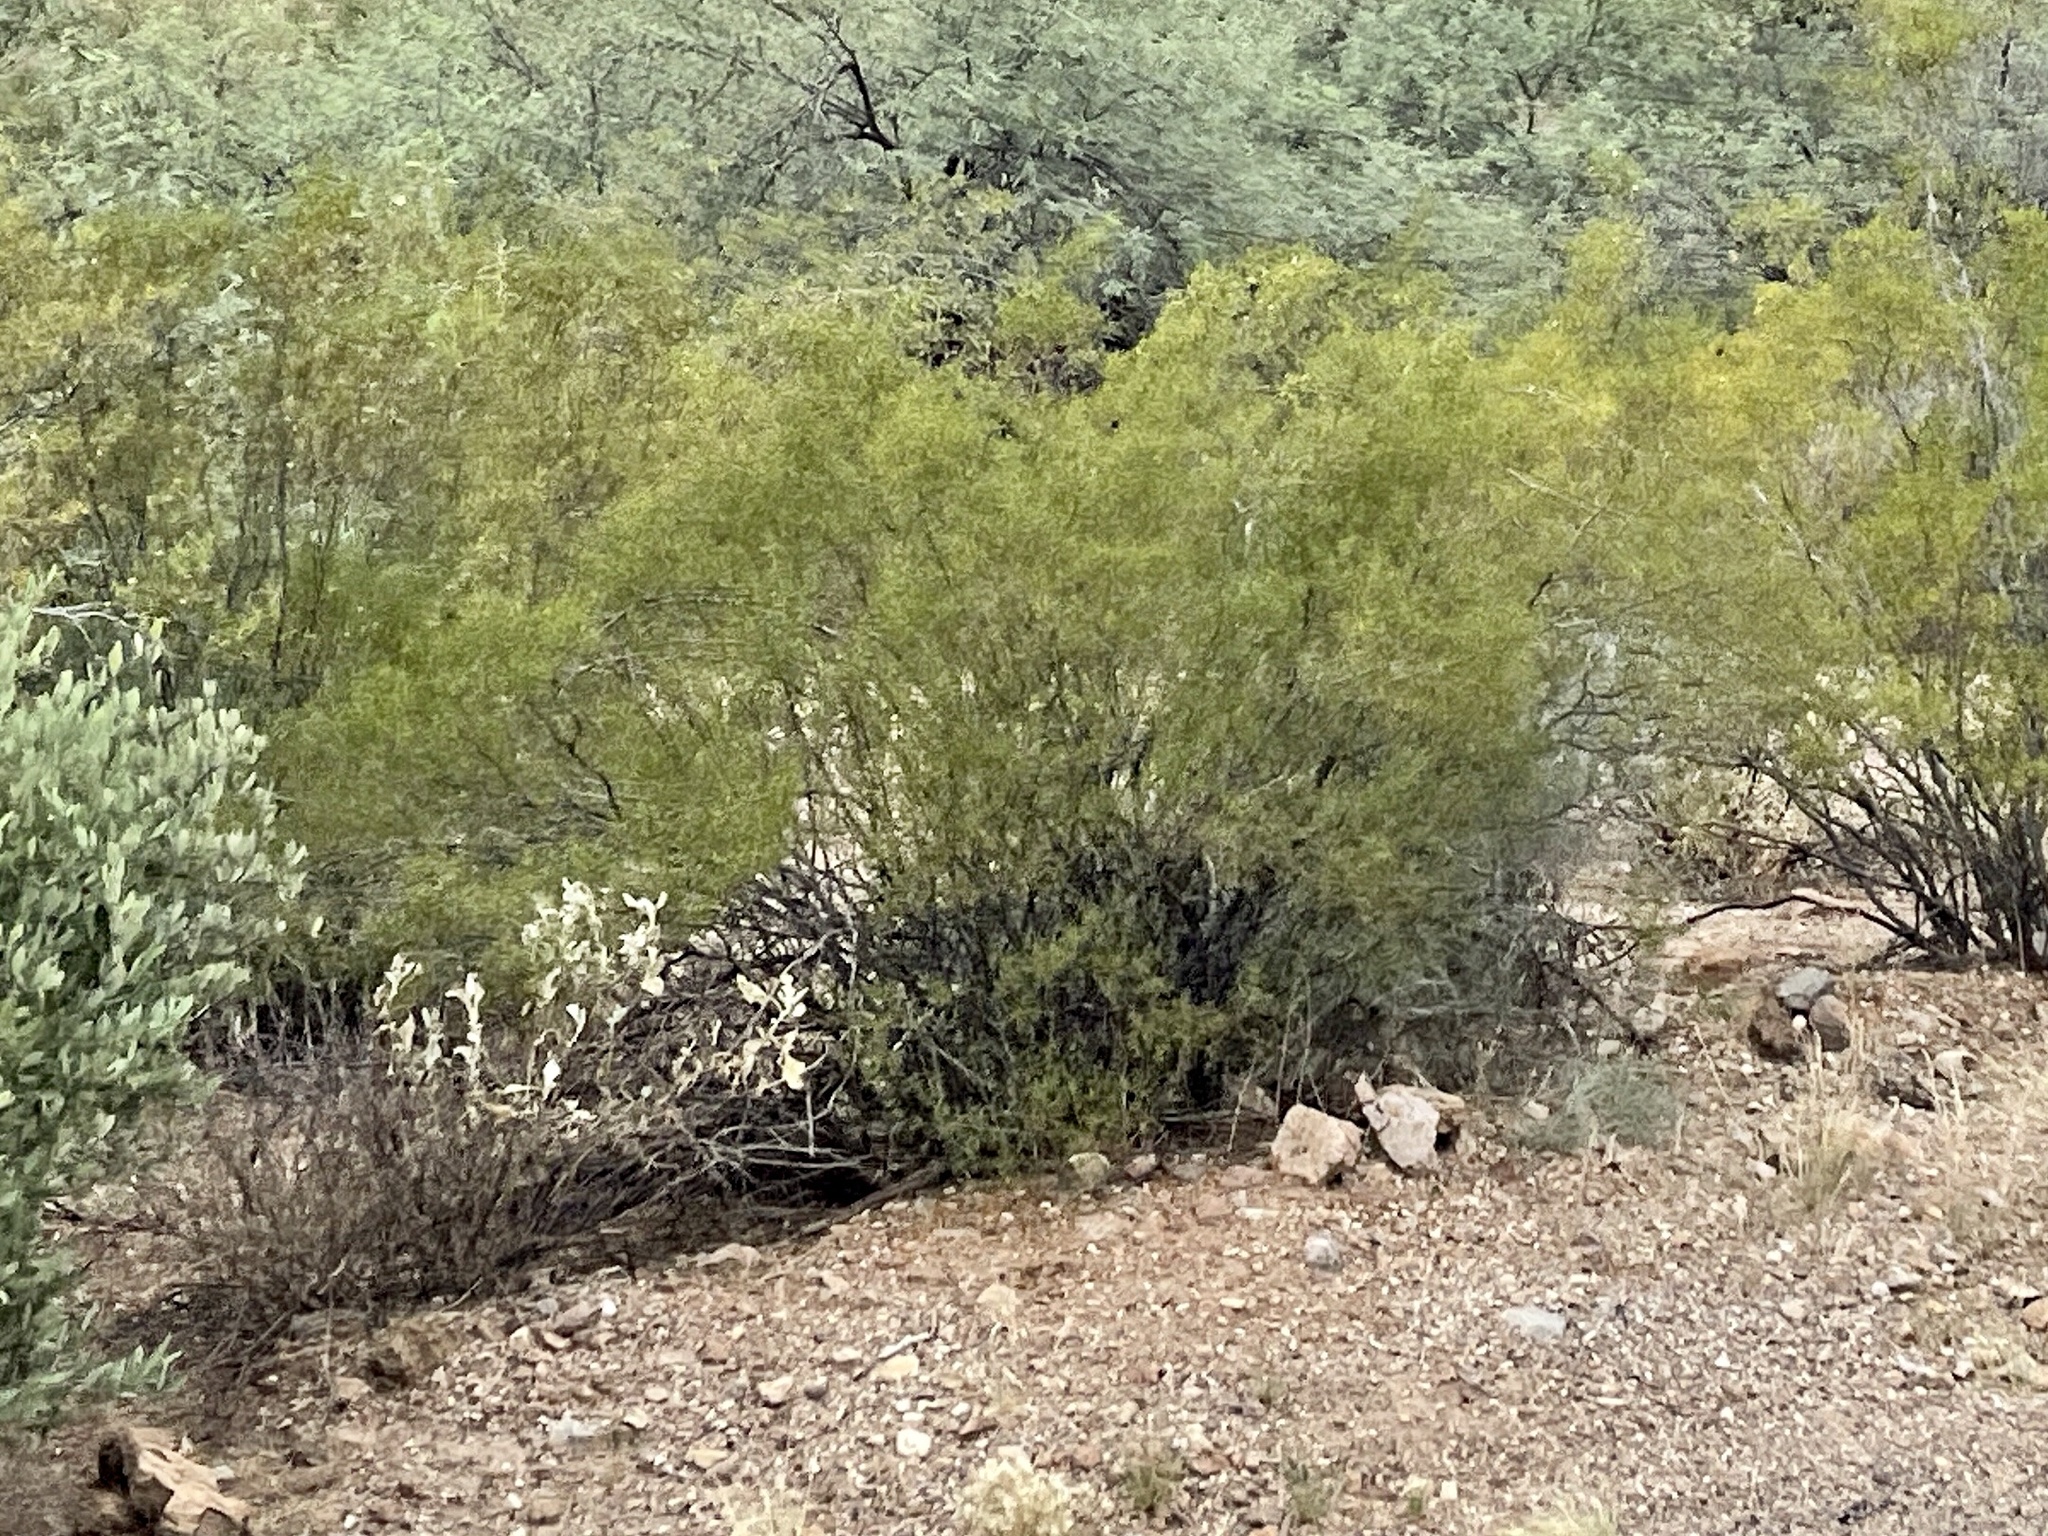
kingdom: Plantae
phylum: Tracheophyta
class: Magnoliopsida
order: Zygophyllales
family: Zygophyllaceae
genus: Larrea
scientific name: Larrea tridentata
